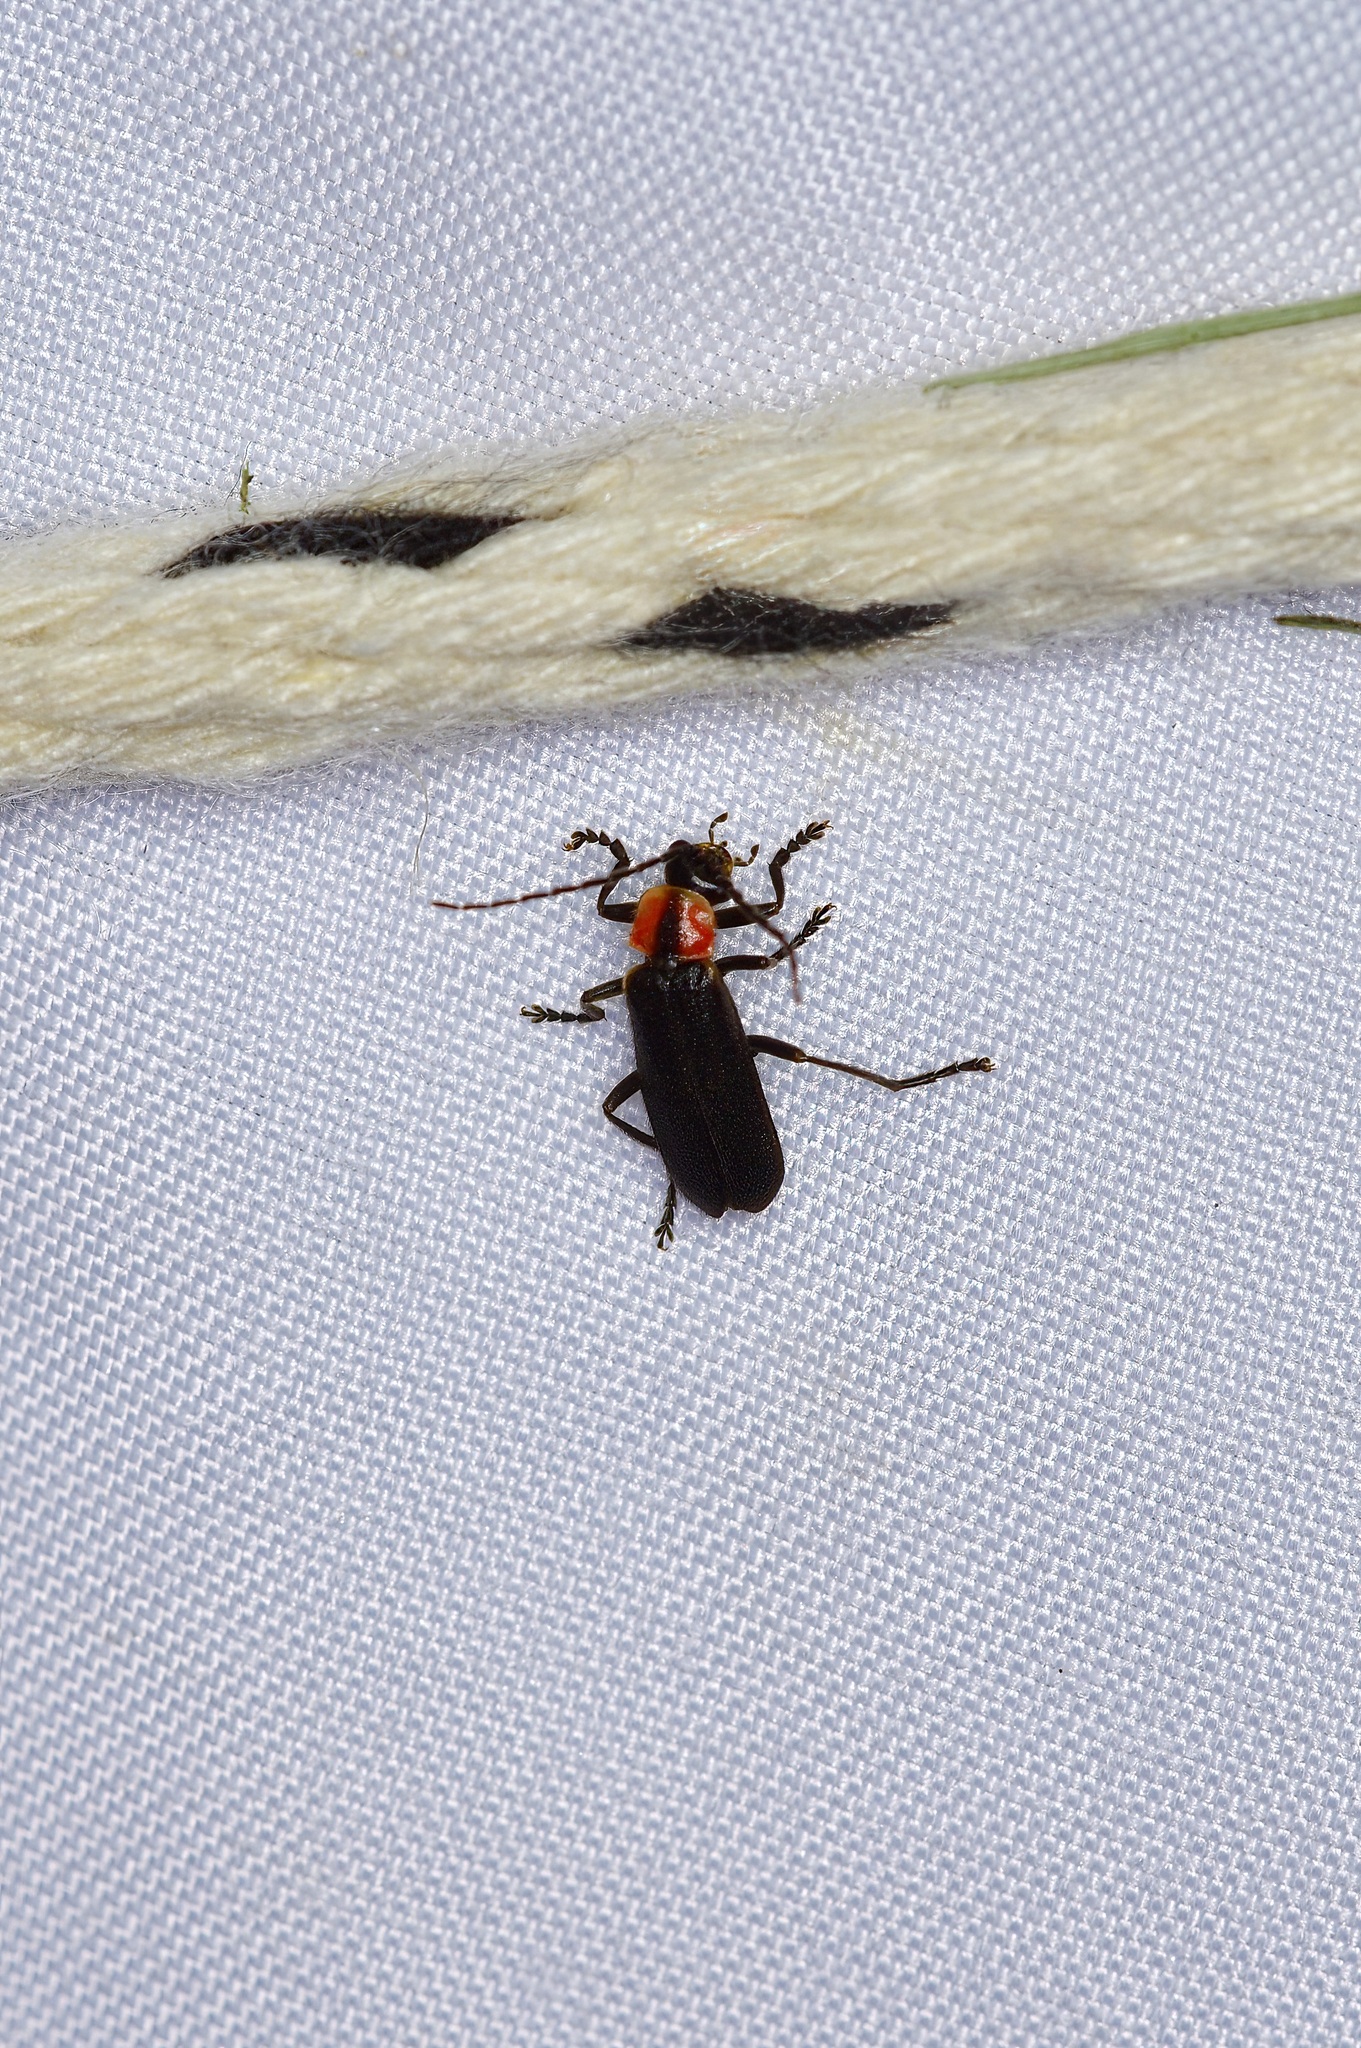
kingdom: Animalia
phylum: Arthropoda
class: Insecta
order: Coleoptera
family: Cantharidae
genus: Discodon
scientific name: Discodon planicolle
